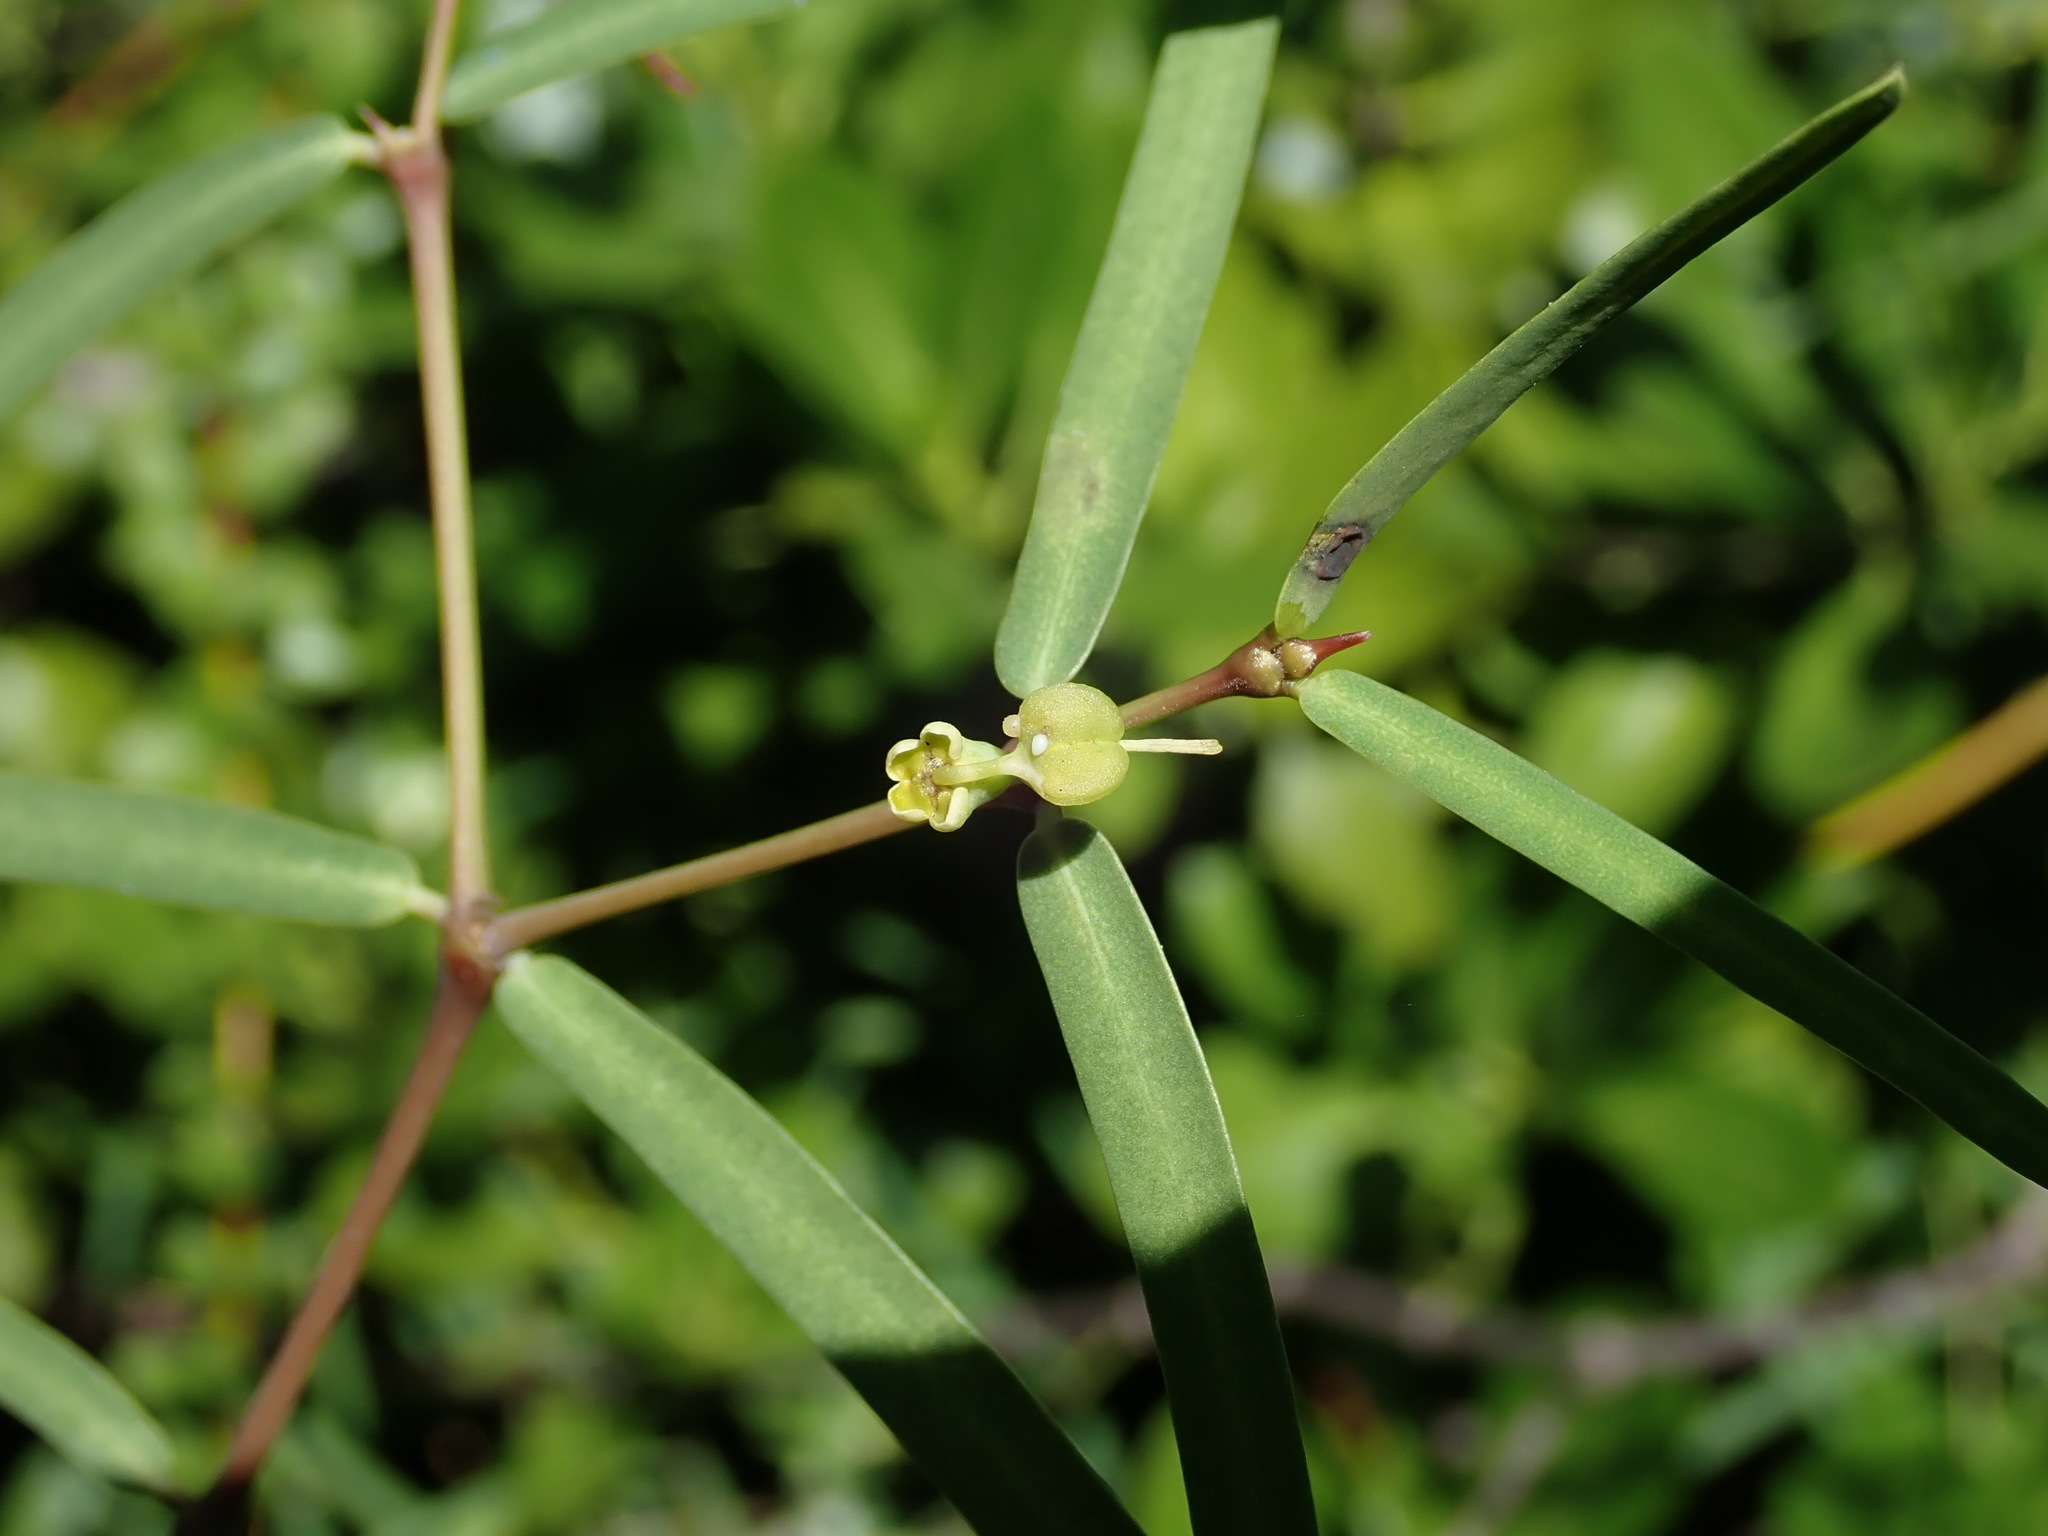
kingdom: Plantae
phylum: Tracheophyta
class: Magnoliopsida
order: Malpighiales
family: Euphorbiaceae
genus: Euphorbia
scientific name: Euphorbia articulata
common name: Jointed sandmat
